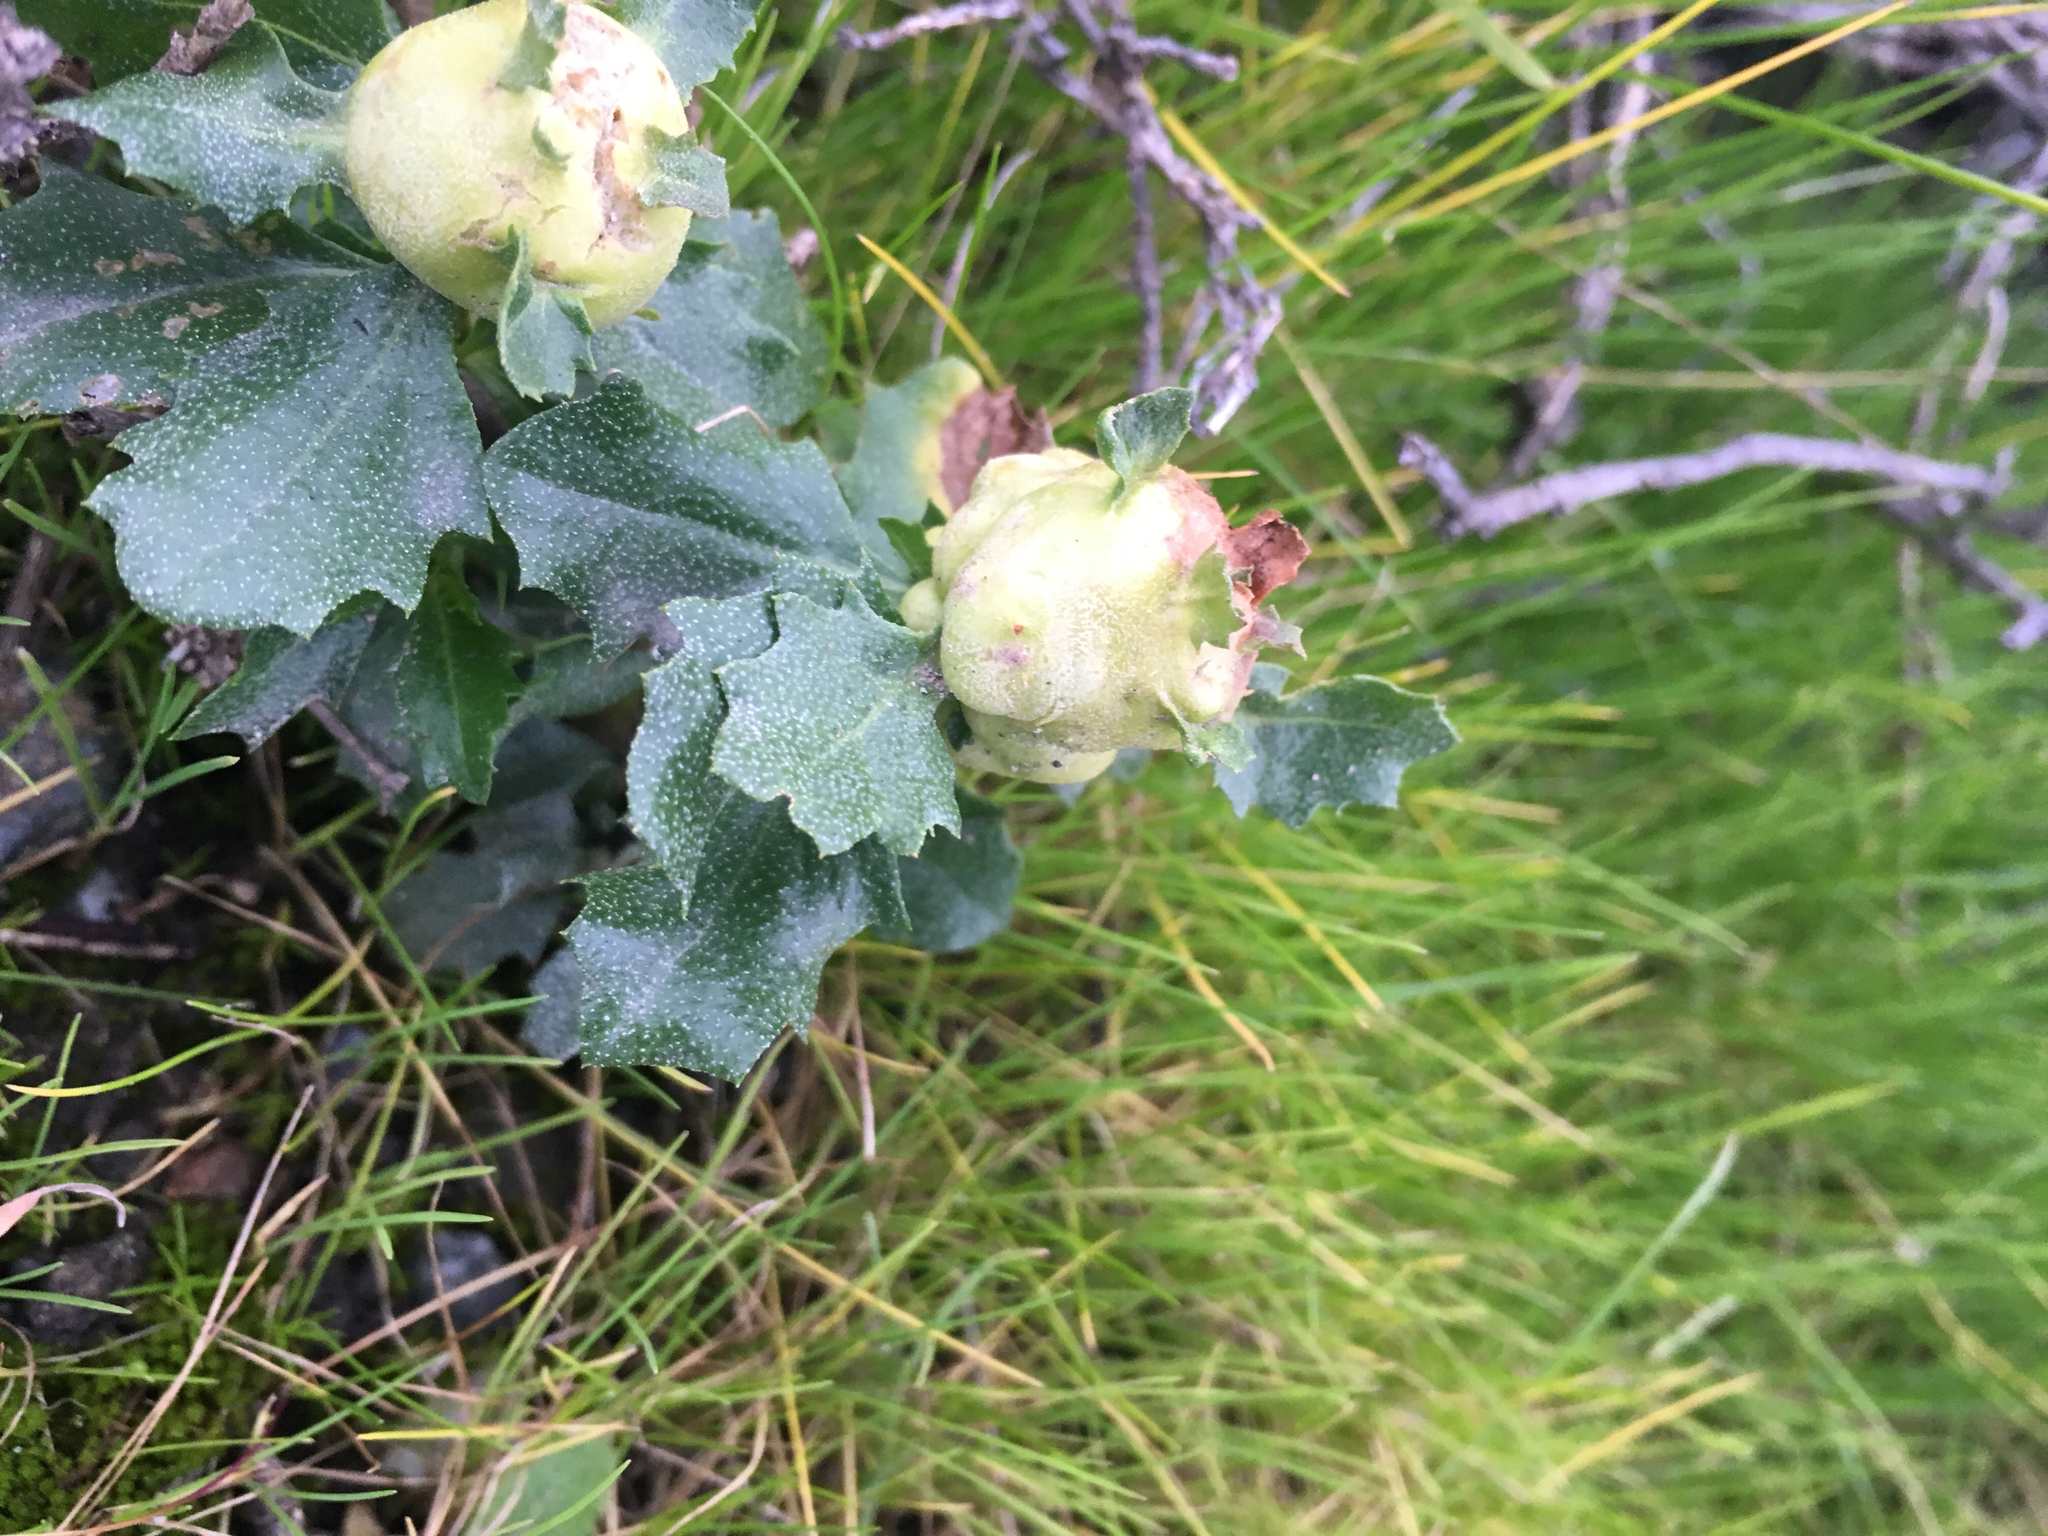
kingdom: Animalia
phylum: Arthropoda
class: Insecta
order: Diptera
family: Cecidomyiidae
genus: Rhopalomyia
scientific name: Rhopalomyia californica
